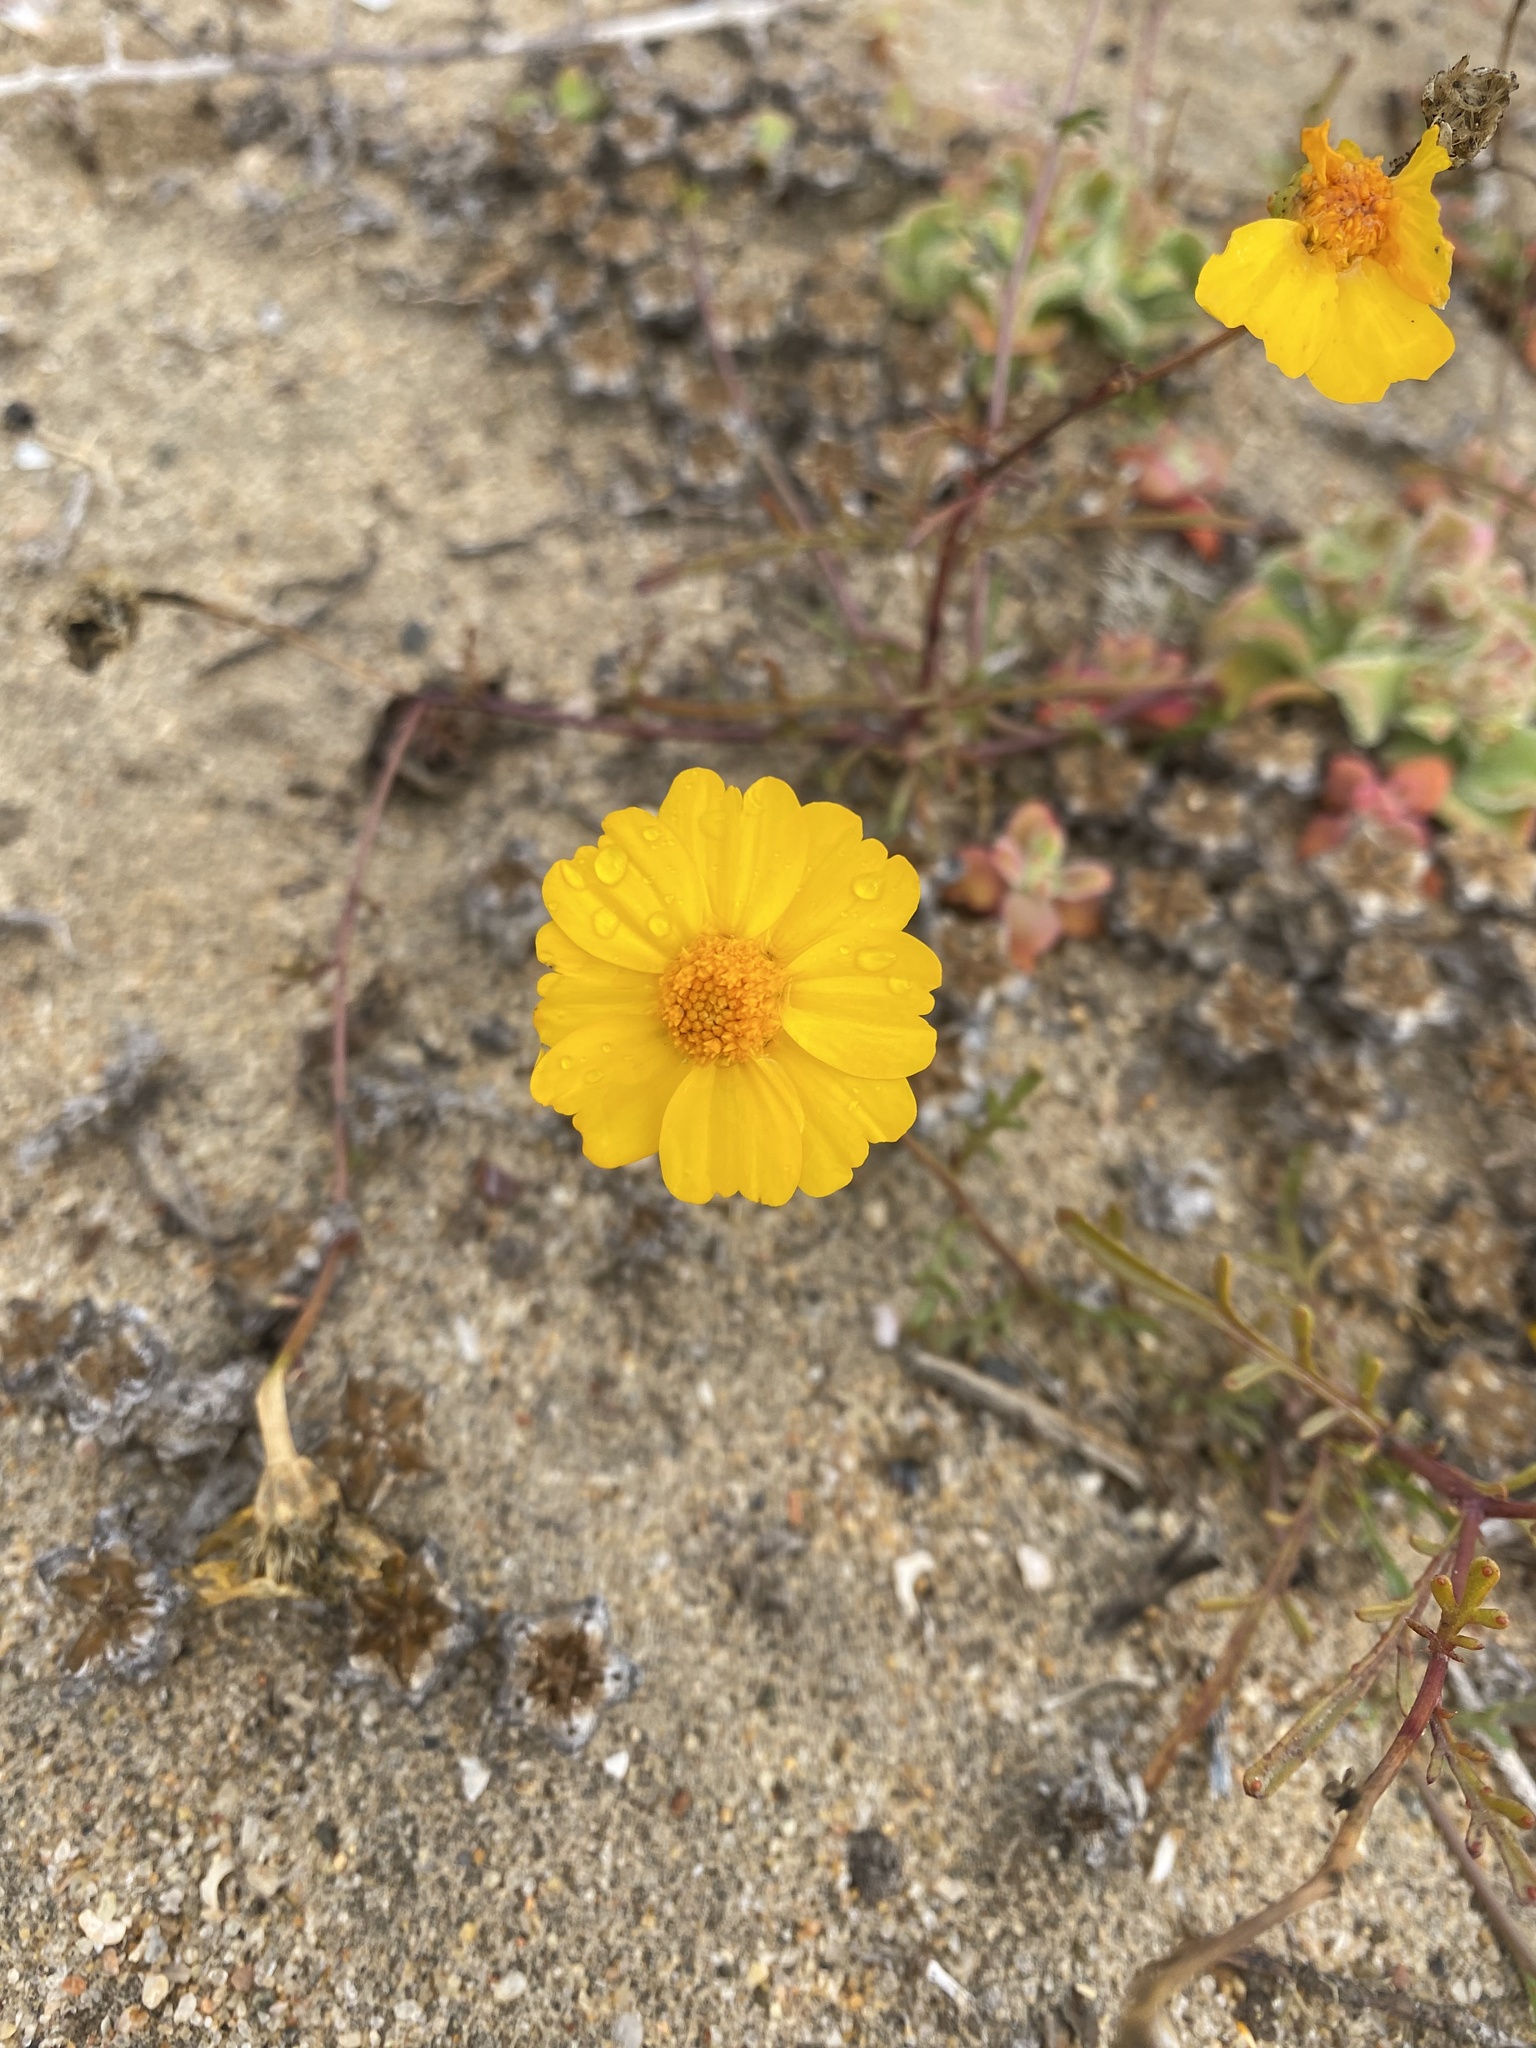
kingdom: Plantae
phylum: Tracheophyta
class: Magnoliopsida
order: Asterales
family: Asteraceae
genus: Boeberastrum
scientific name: Boeberastrum anthemidifolium
